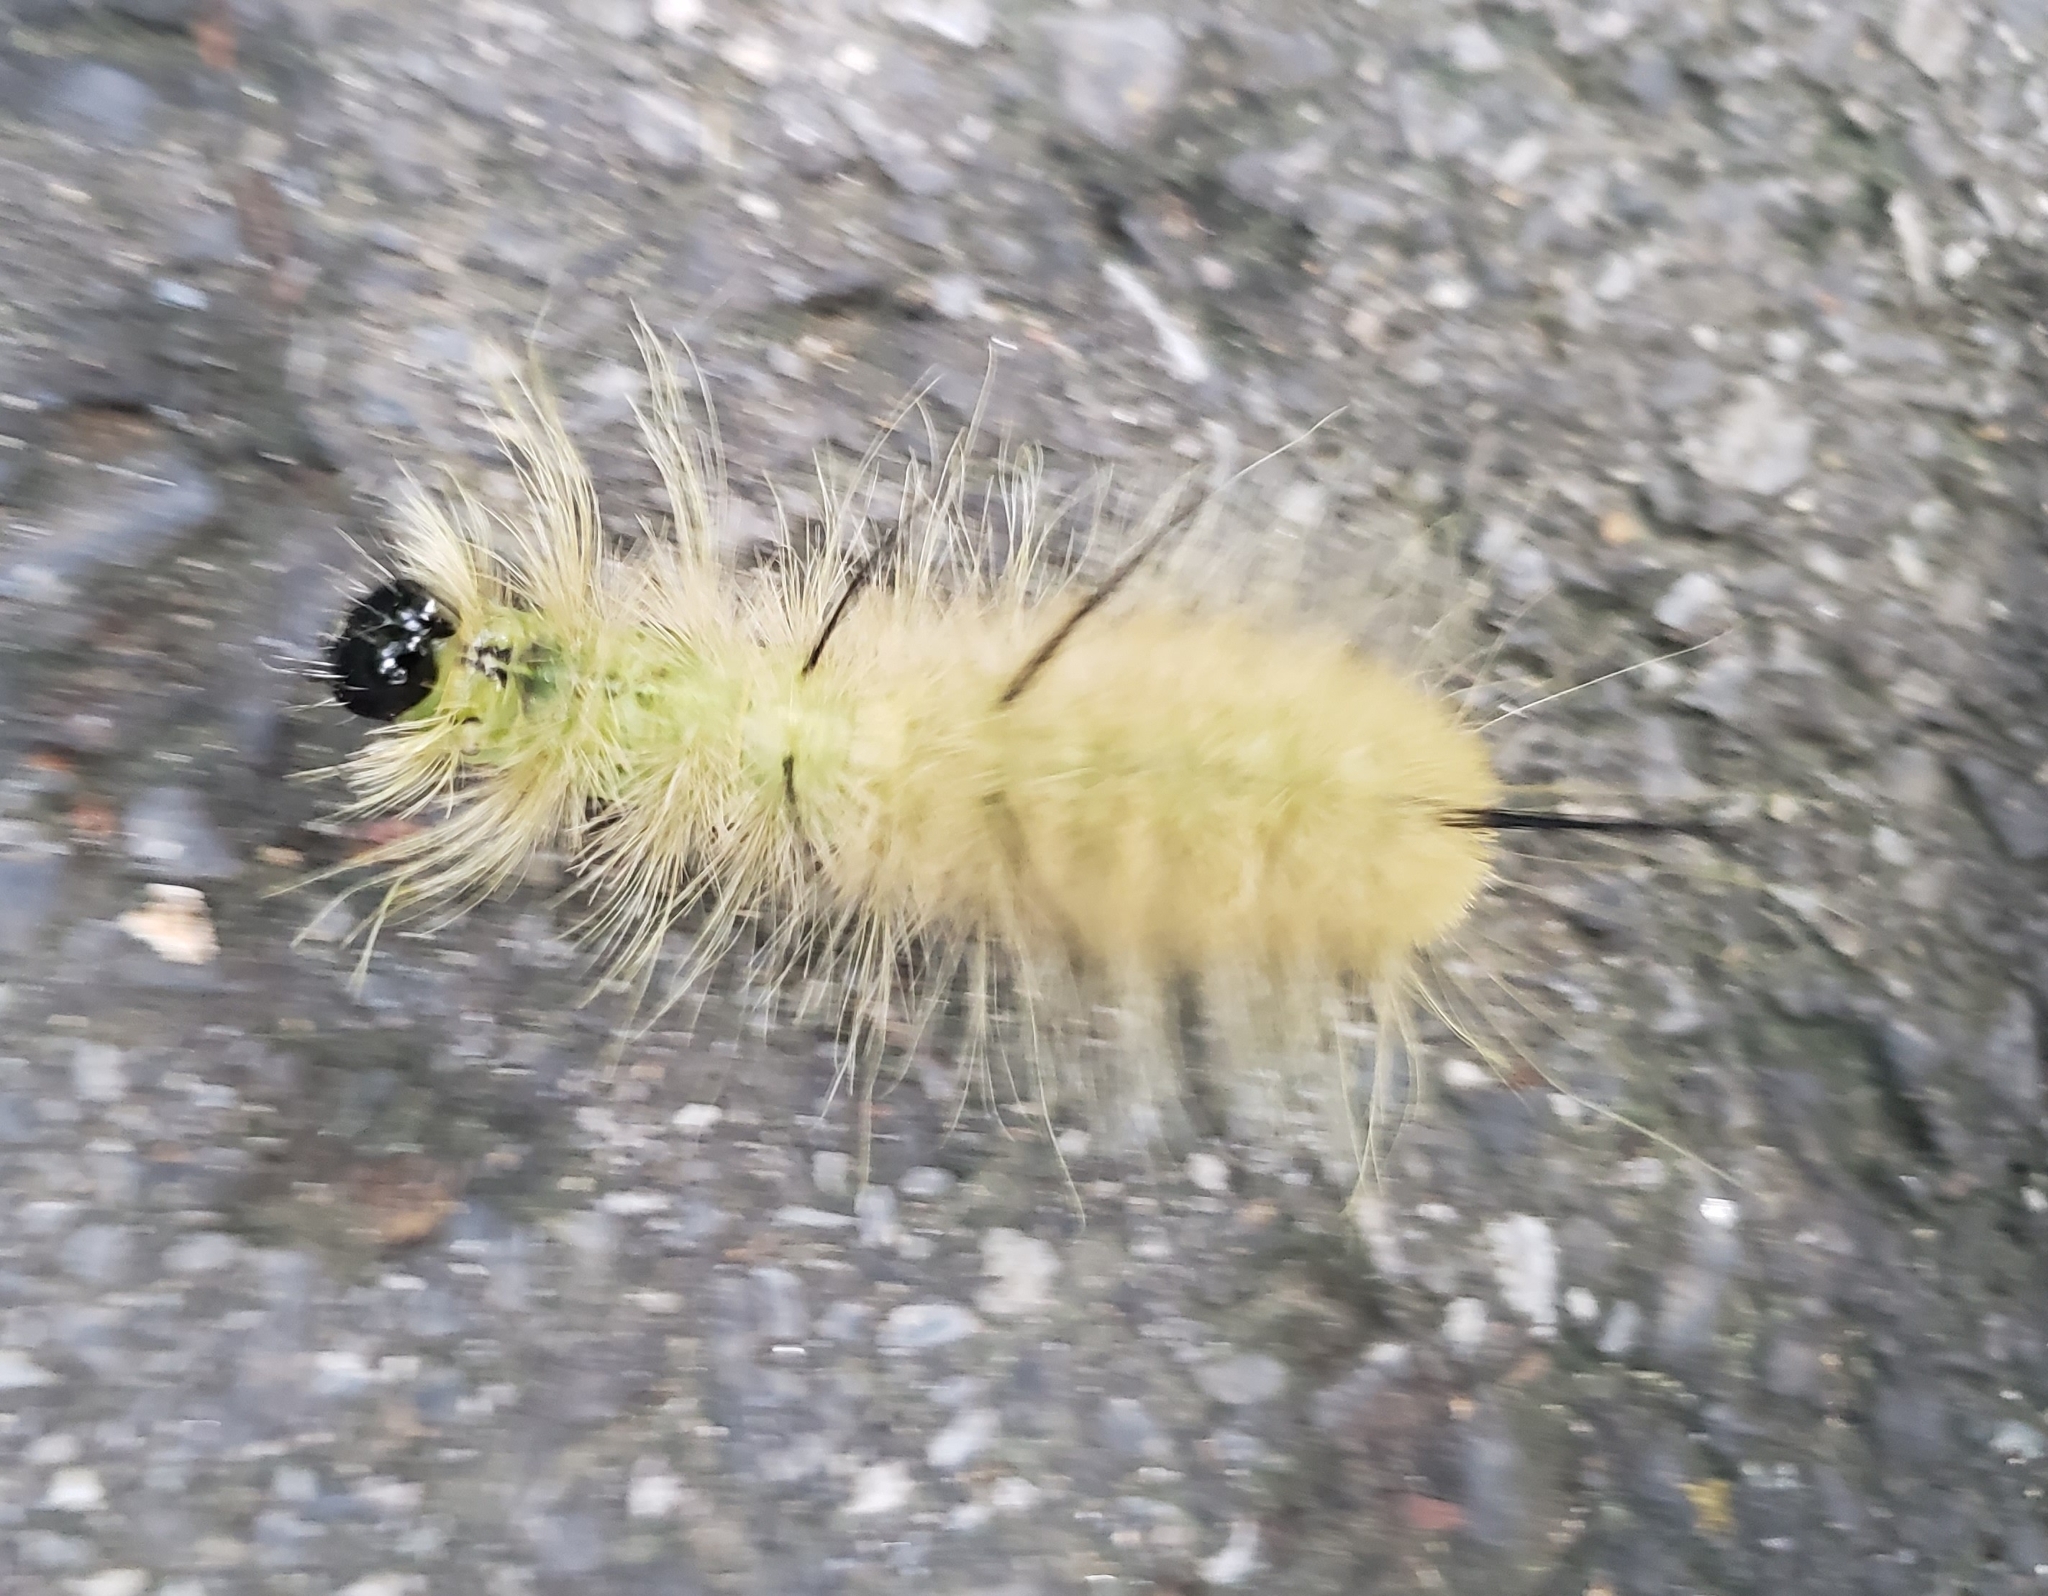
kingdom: Animalia
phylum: Arthropoda
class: Insecta
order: Lepidoptera
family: Noctuidae
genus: Acronicta
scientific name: Acronicta americana
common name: American dagger
